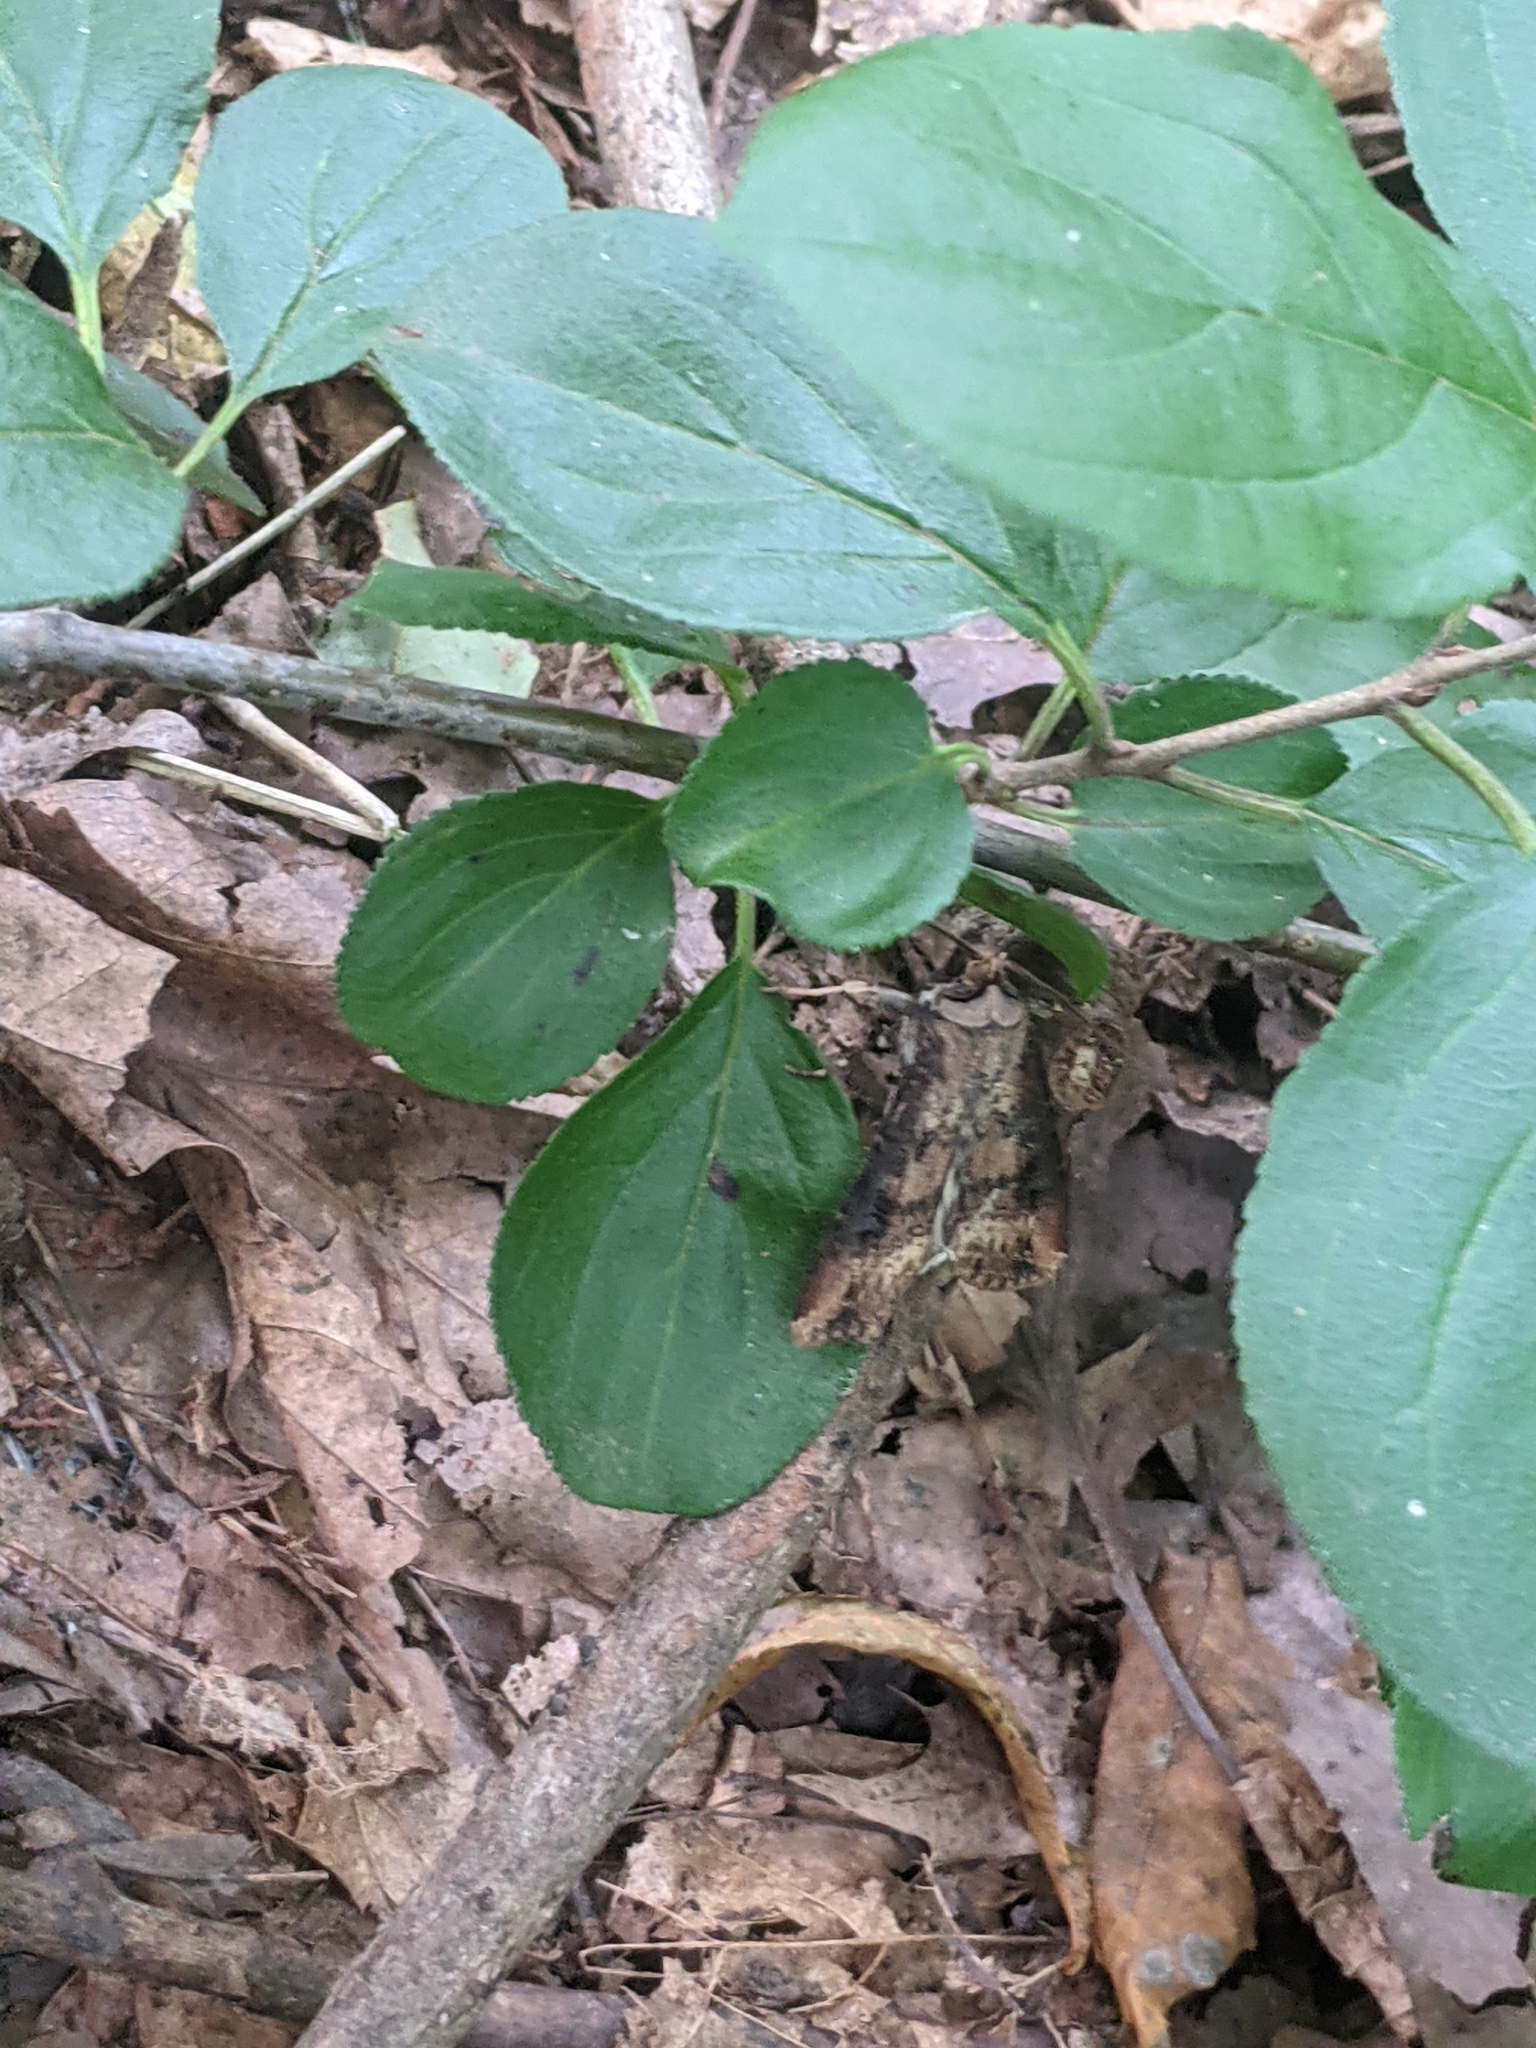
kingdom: Plantae
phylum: Tracheophyta
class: Magnoliopsida
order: Rosales
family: Rhamnaceae
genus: Rhamnus
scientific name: Rhamnus cathartica
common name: Common buckthorn
